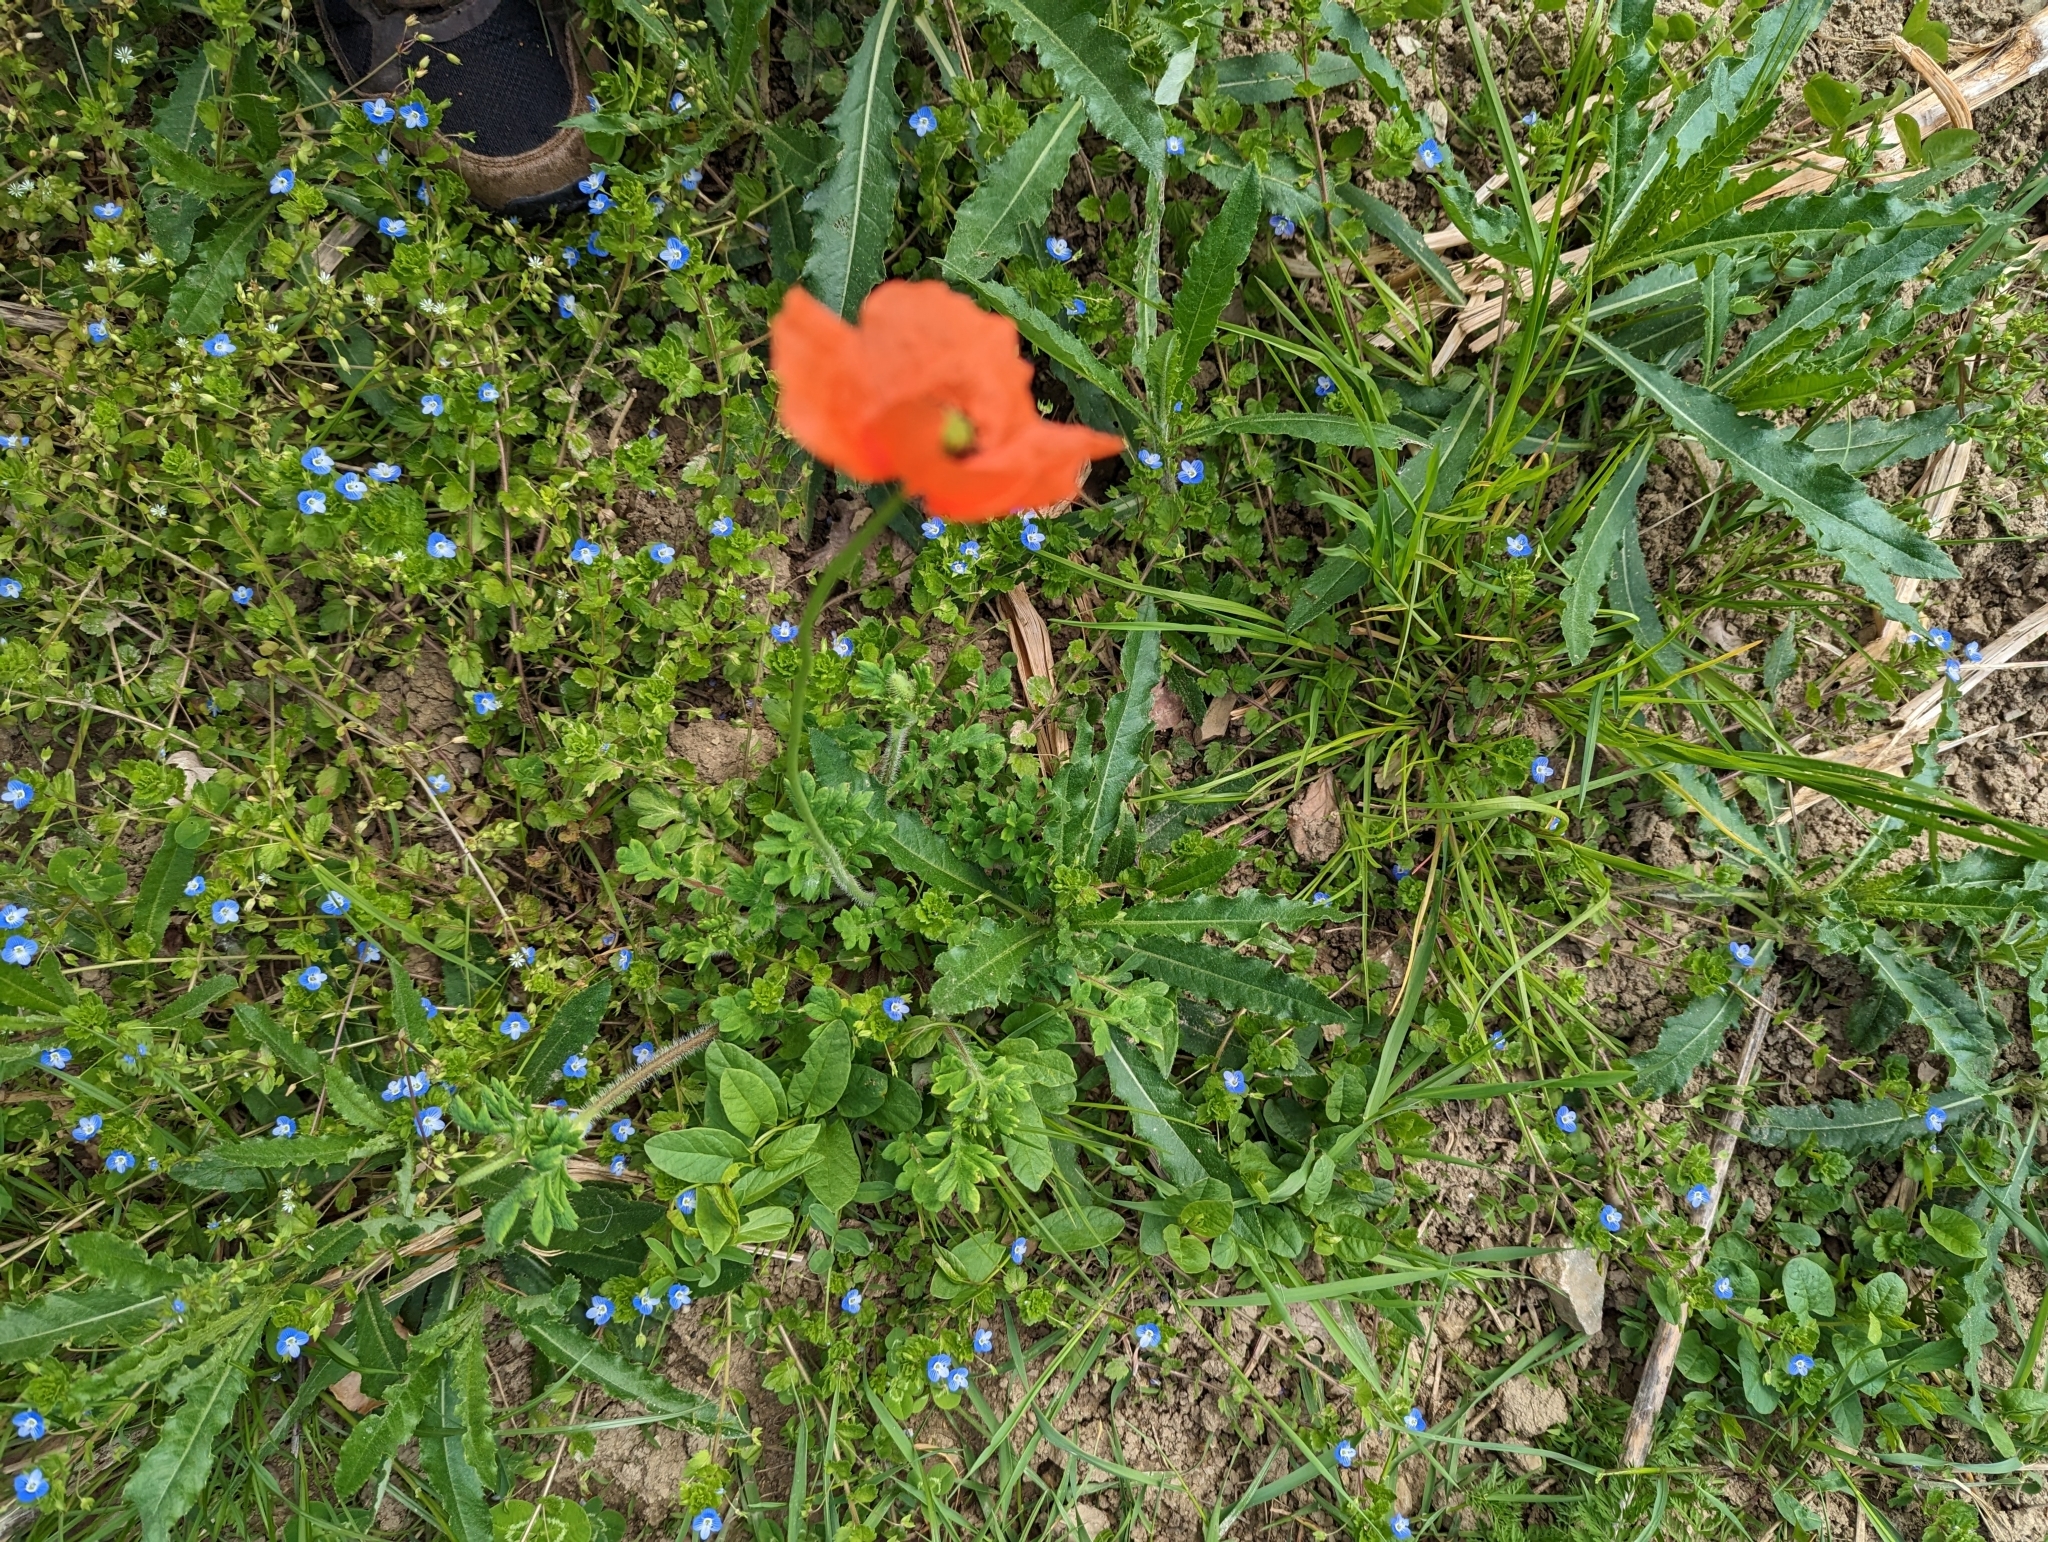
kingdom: Plantae
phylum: Tracheophyta
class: Magnoliopsida
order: Ranunculales
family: Papaveraceae
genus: Papaver
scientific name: Papaver dubium
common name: Long-headed poppy
